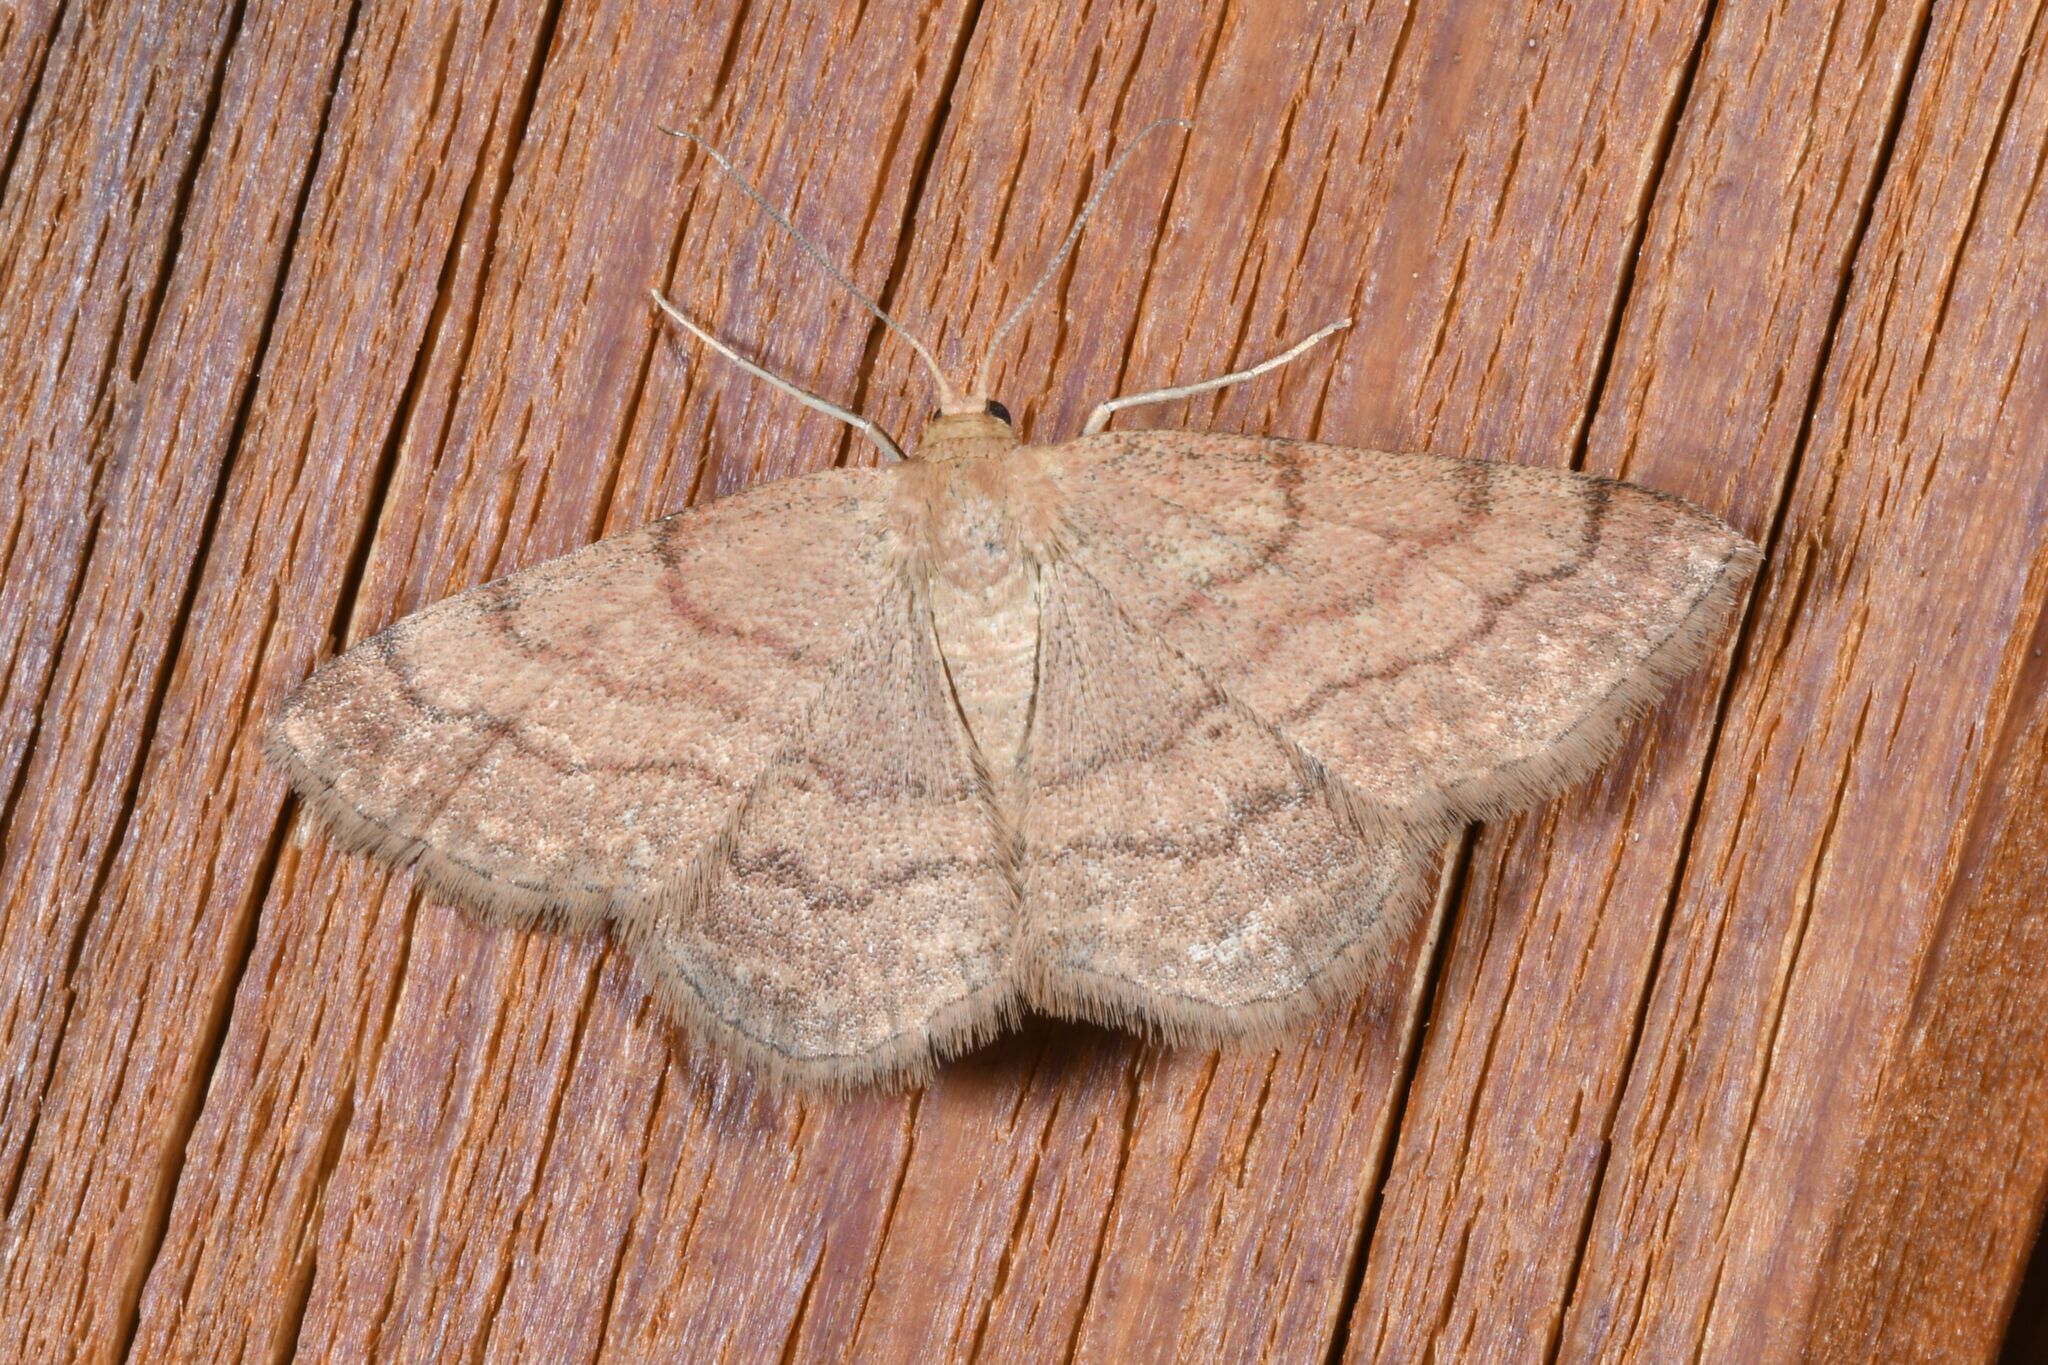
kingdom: Animalia
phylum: Arthropoda
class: Insecta
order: Lepidoptera
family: Geometridae
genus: Scopula
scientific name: Scopula rubiginata
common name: Tawny wave
